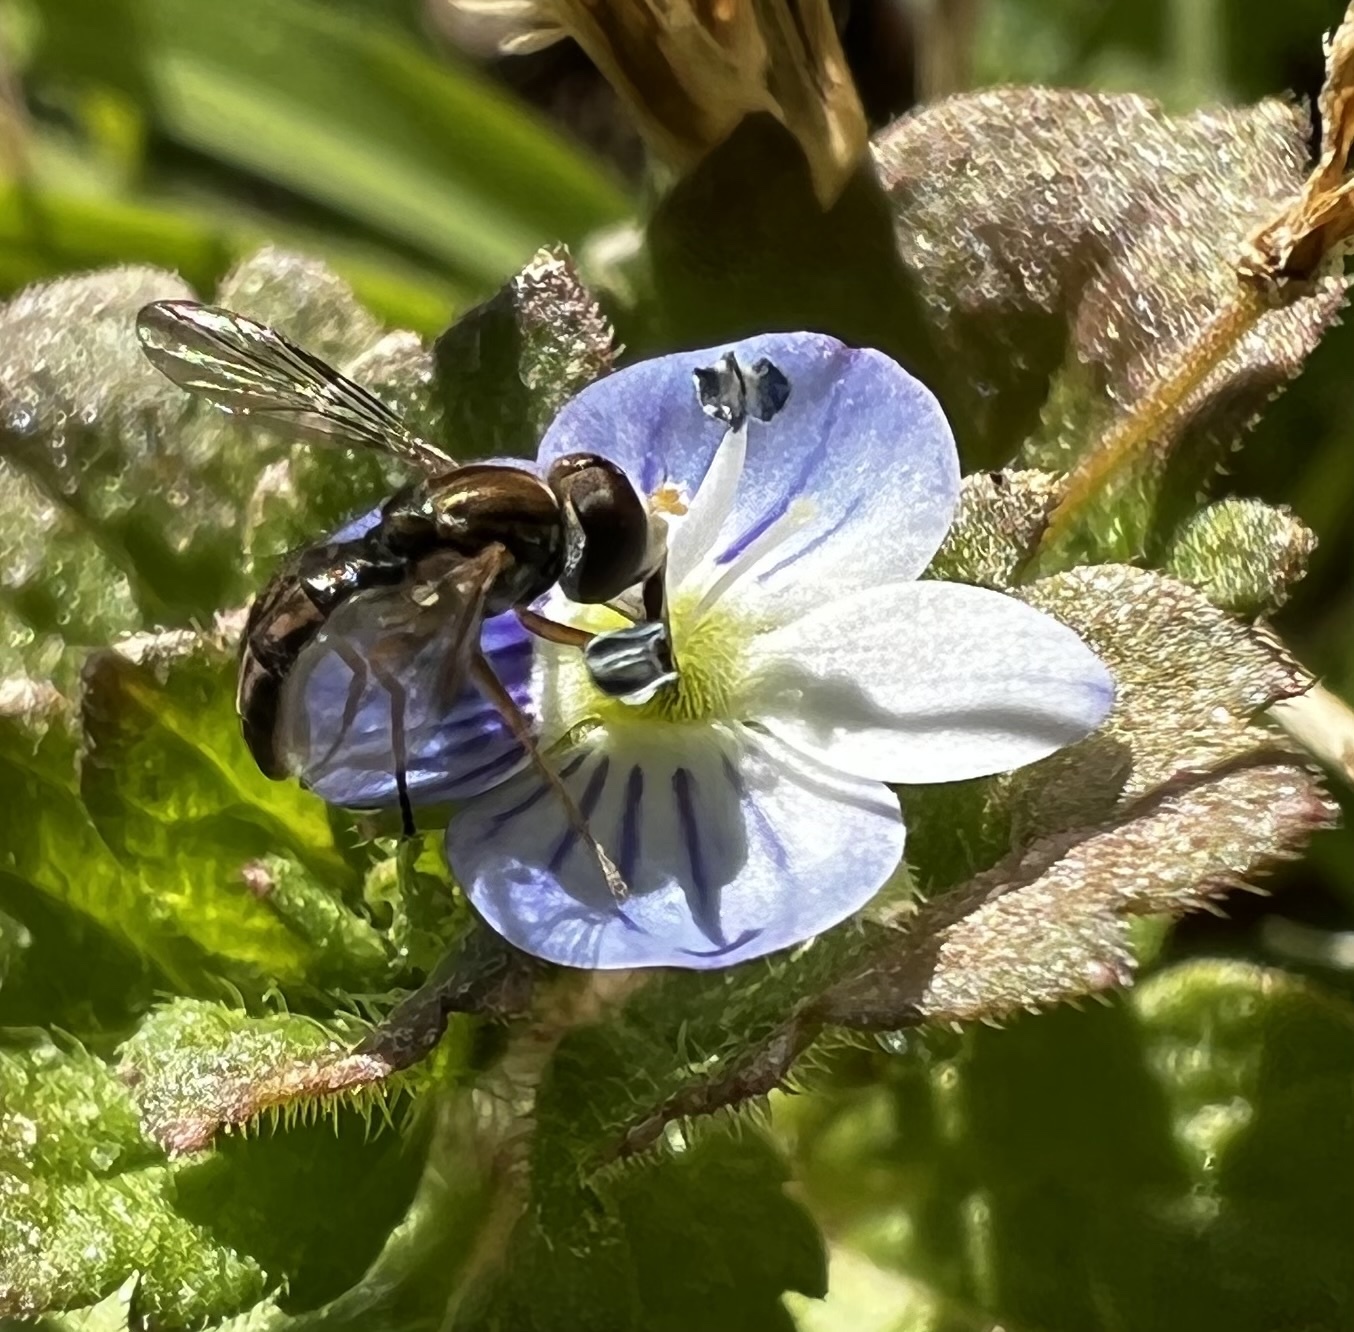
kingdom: Animalia
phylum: Arthropoda
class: Insecta
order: Diptera
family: Syrphidae
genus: Toxomerus
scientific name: Toxomerus marginatus
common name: Syrphid fly
